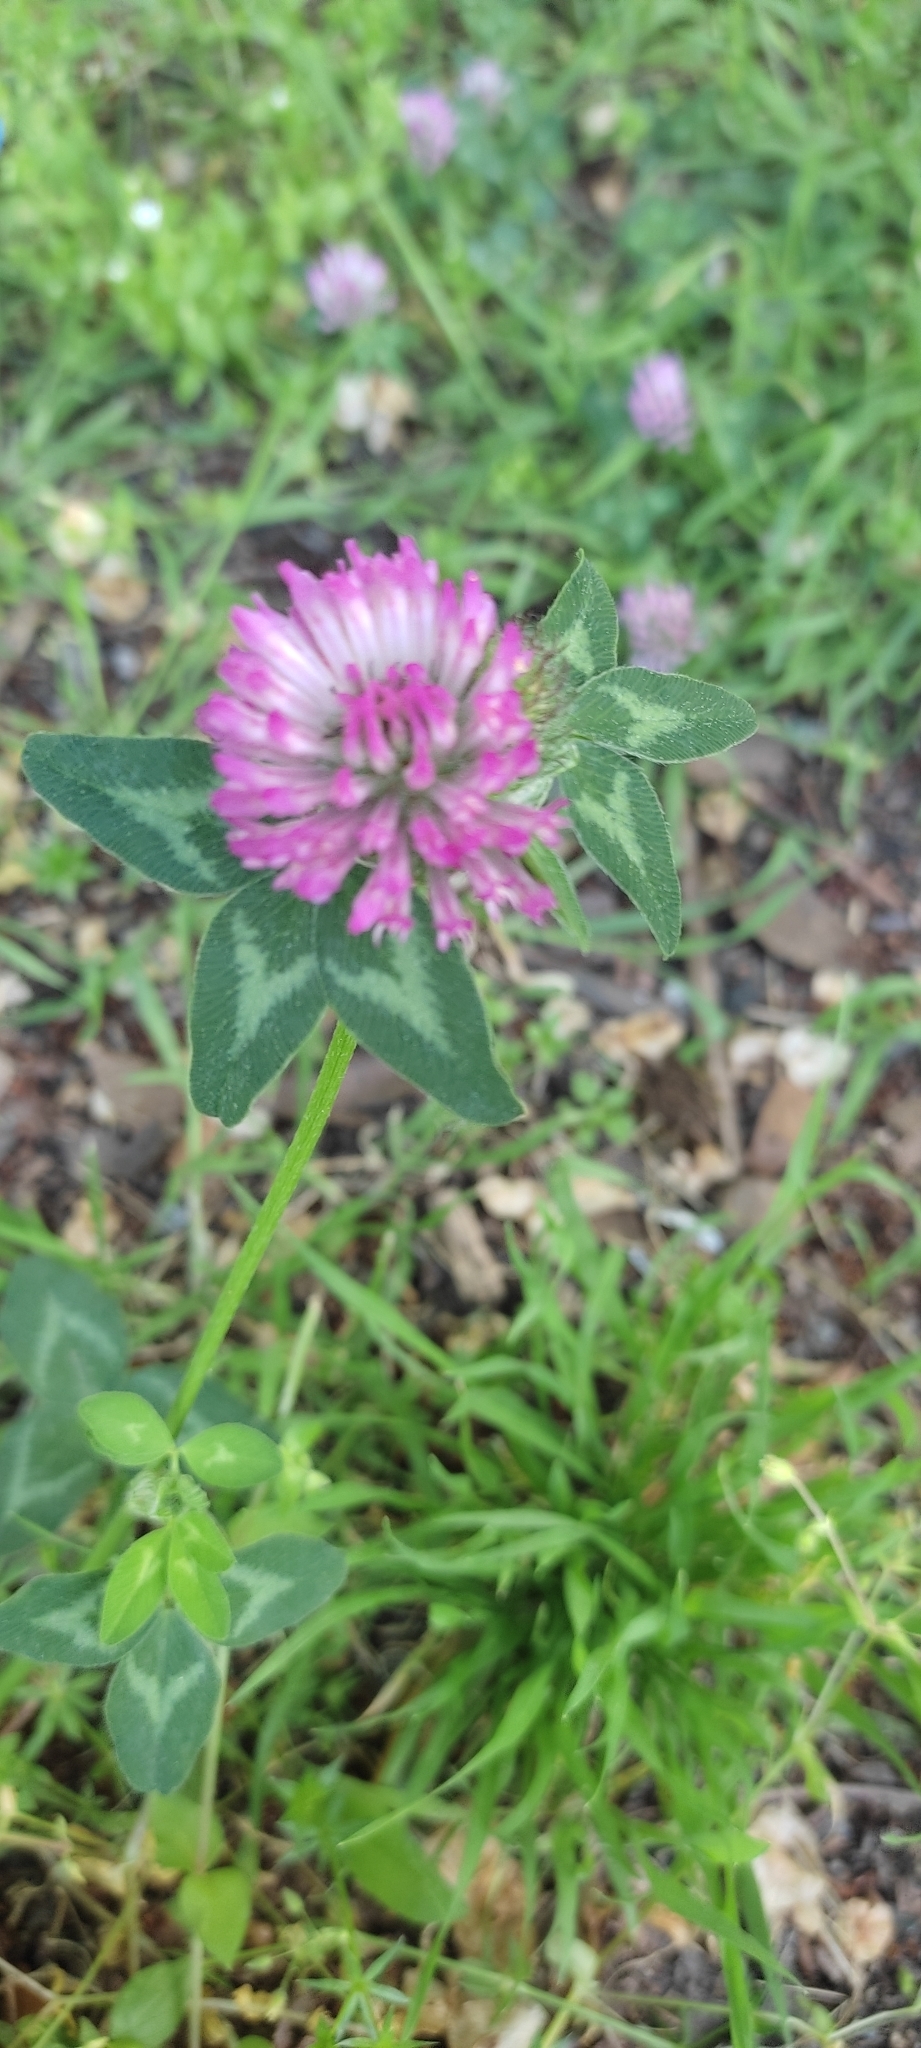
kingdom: Plantae
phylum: Tracheophyta
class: Magnoliopsida
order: Fabales
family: Fabaceae
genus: Trifolium
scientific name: Trifolium pratense
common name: Red clover
